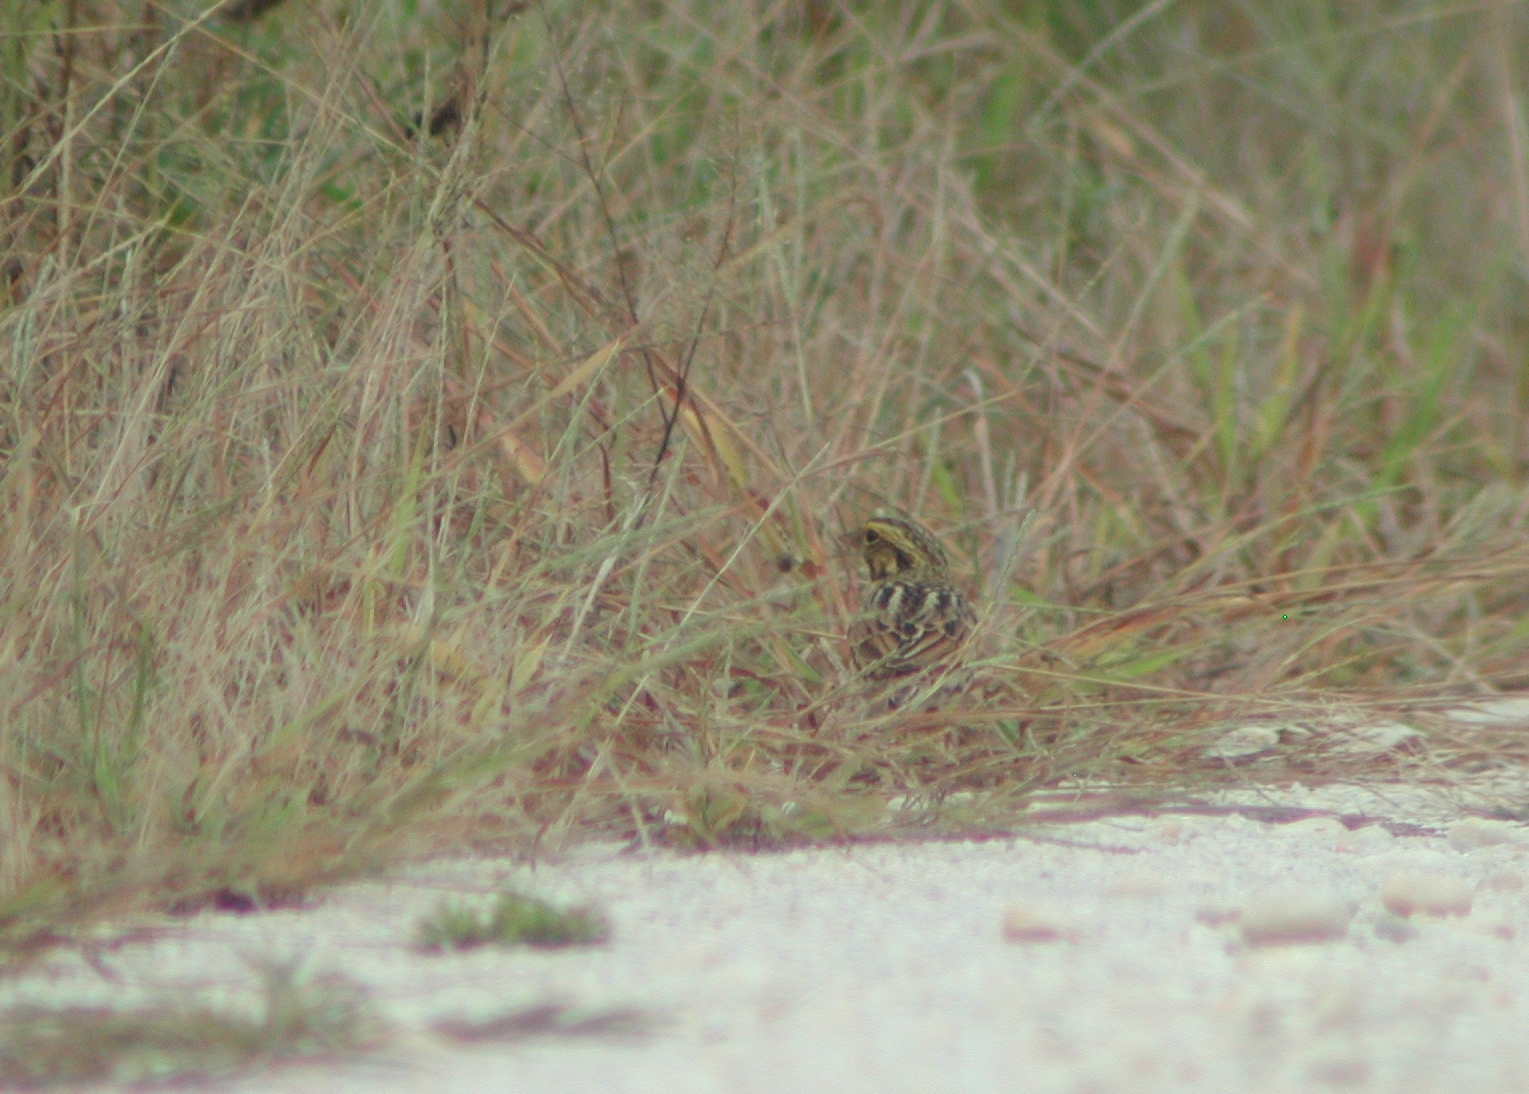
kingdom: Animalia
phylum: Chordata
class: Aves
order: Passeriformes
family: Passerellidae
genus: Passerculus
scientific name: Passerculus sandwichensis
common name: Savannah sparrow
